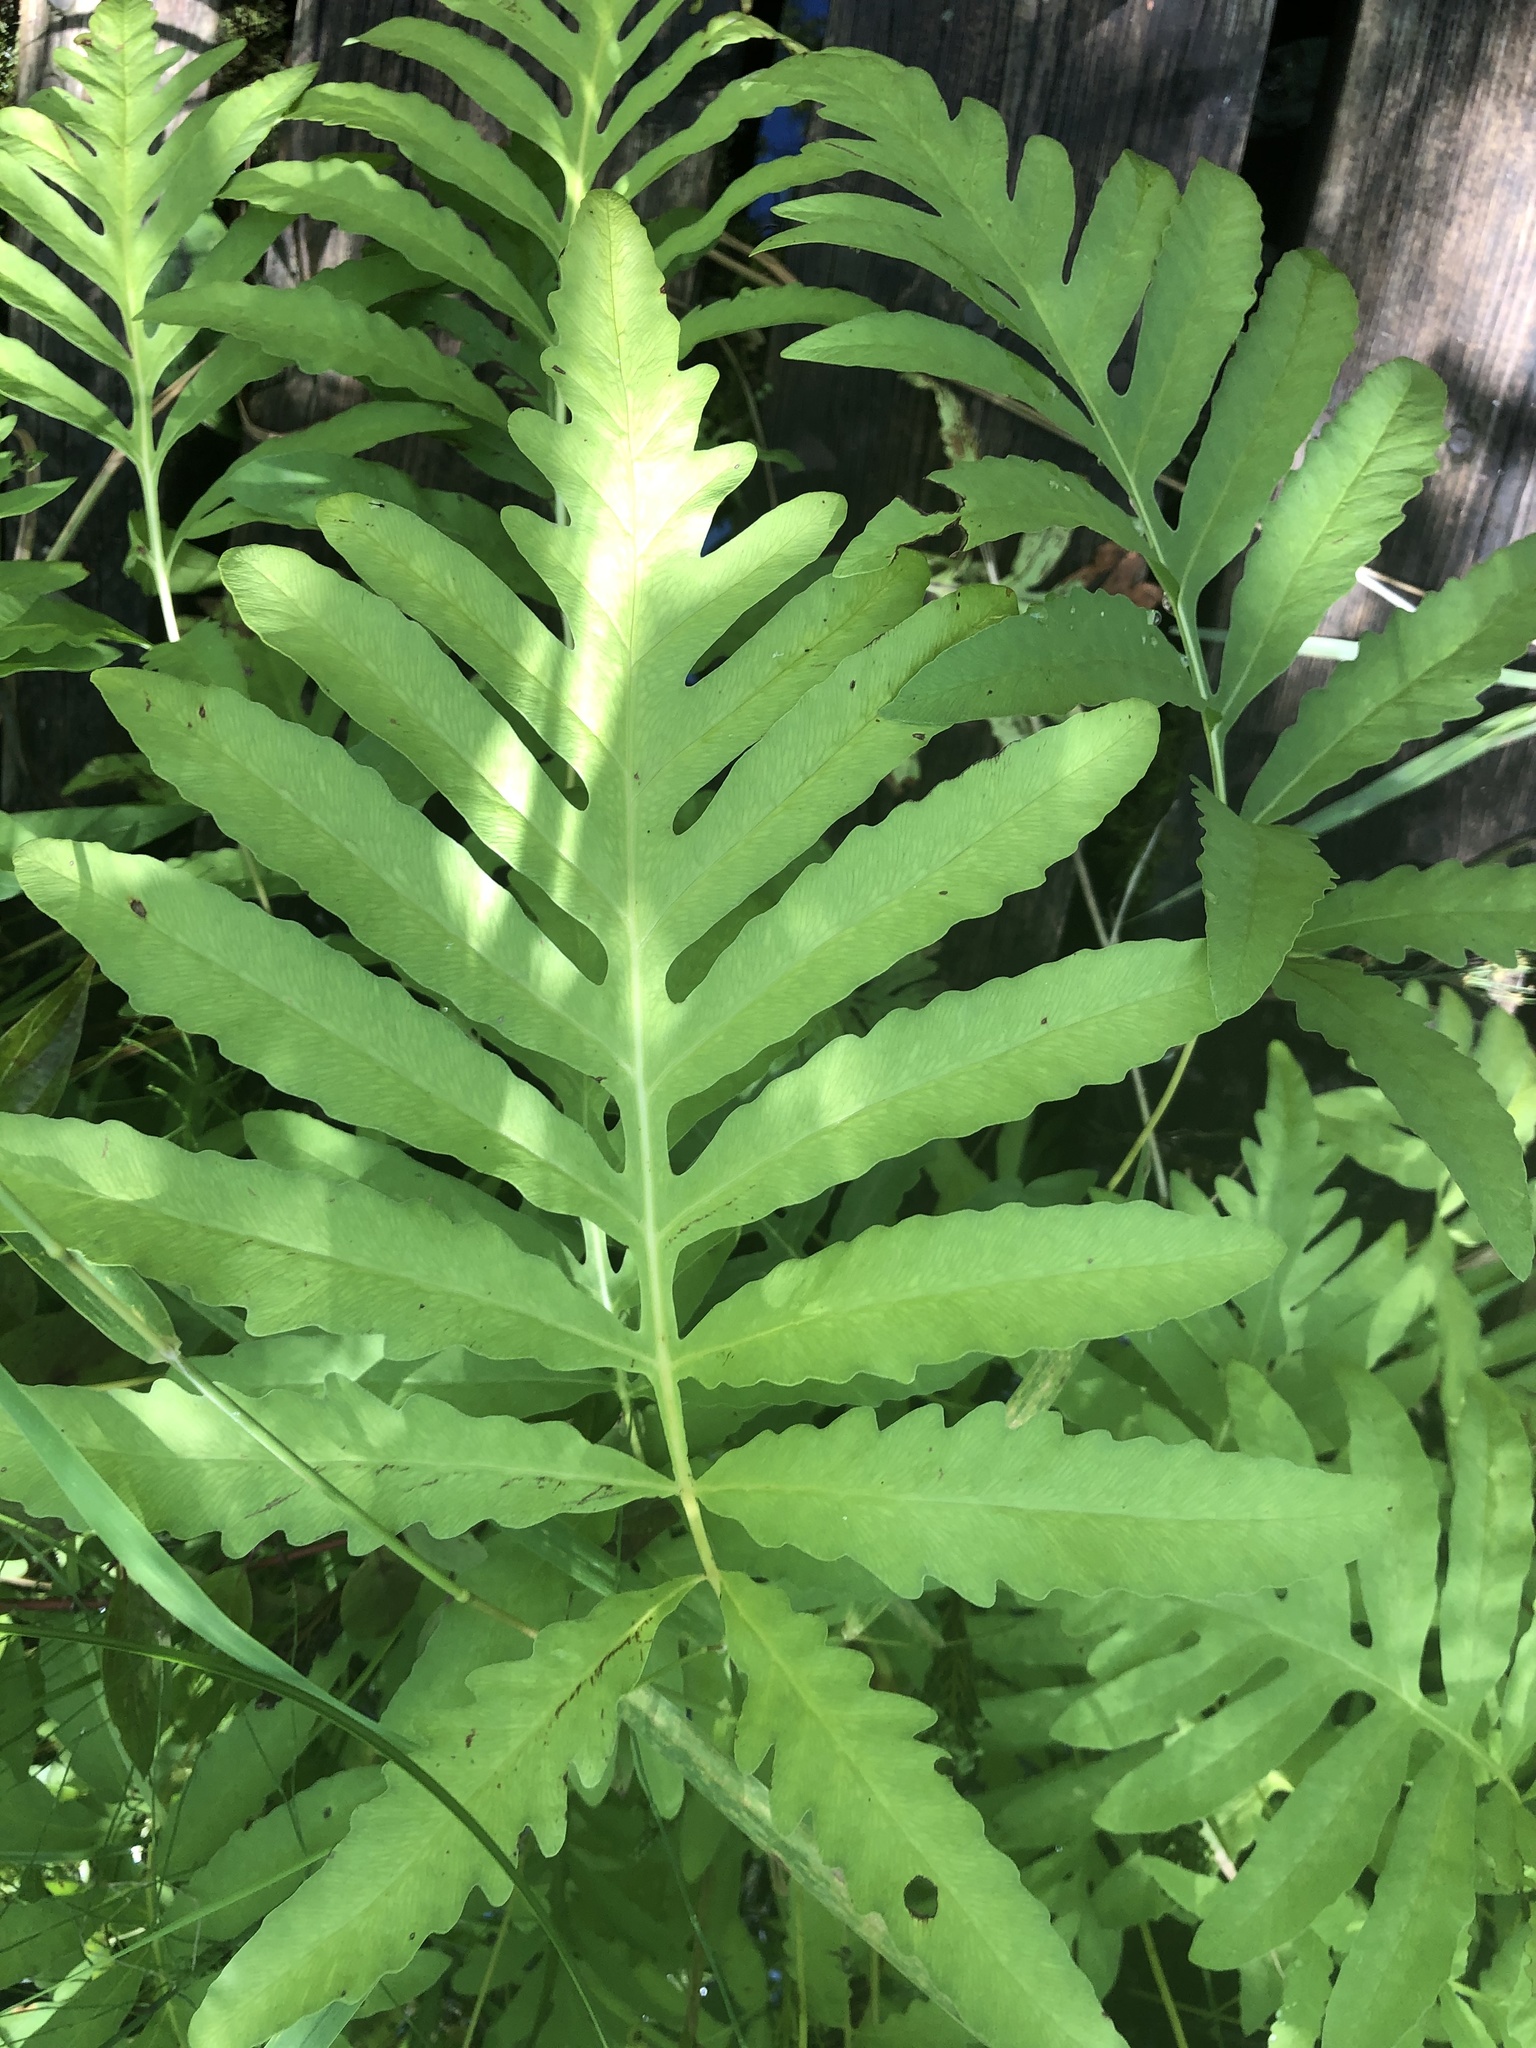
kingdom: Plantae
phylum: Tracheophyta
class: Polypodiopsida
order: Polypodiales
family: Onocleaceae
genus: Onoclea
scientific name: Onoclea sensibilis
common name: Sensitive fern
